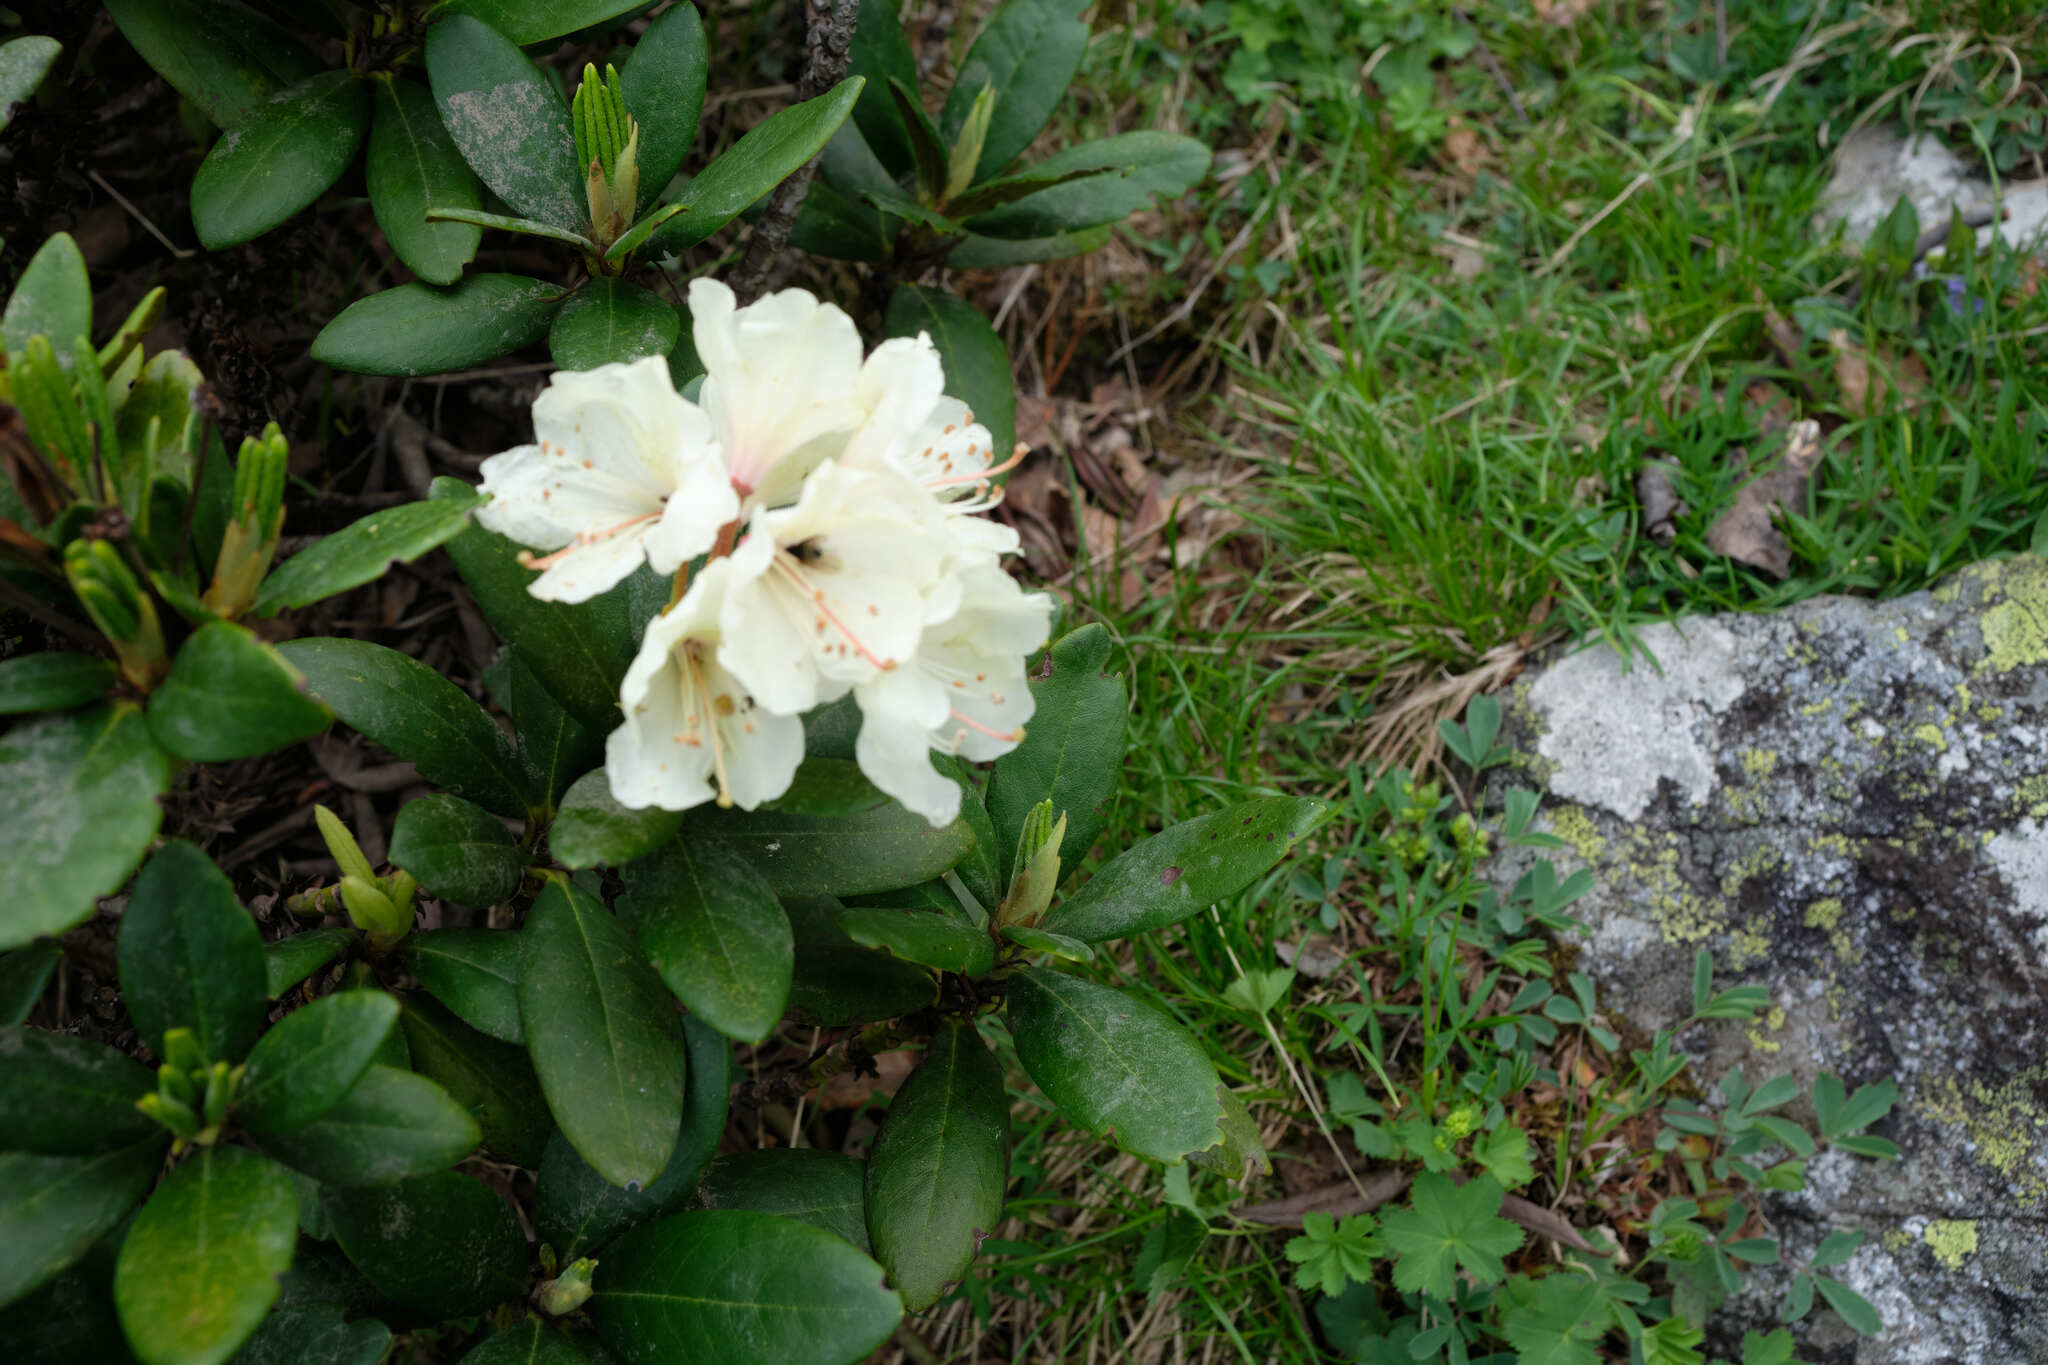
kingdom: Plantae
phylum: Tracheophyta
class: Magnoliopsida
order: Ericales
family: Ericaceae
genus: Rhododendron
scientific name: Rhododendron caucasicum
